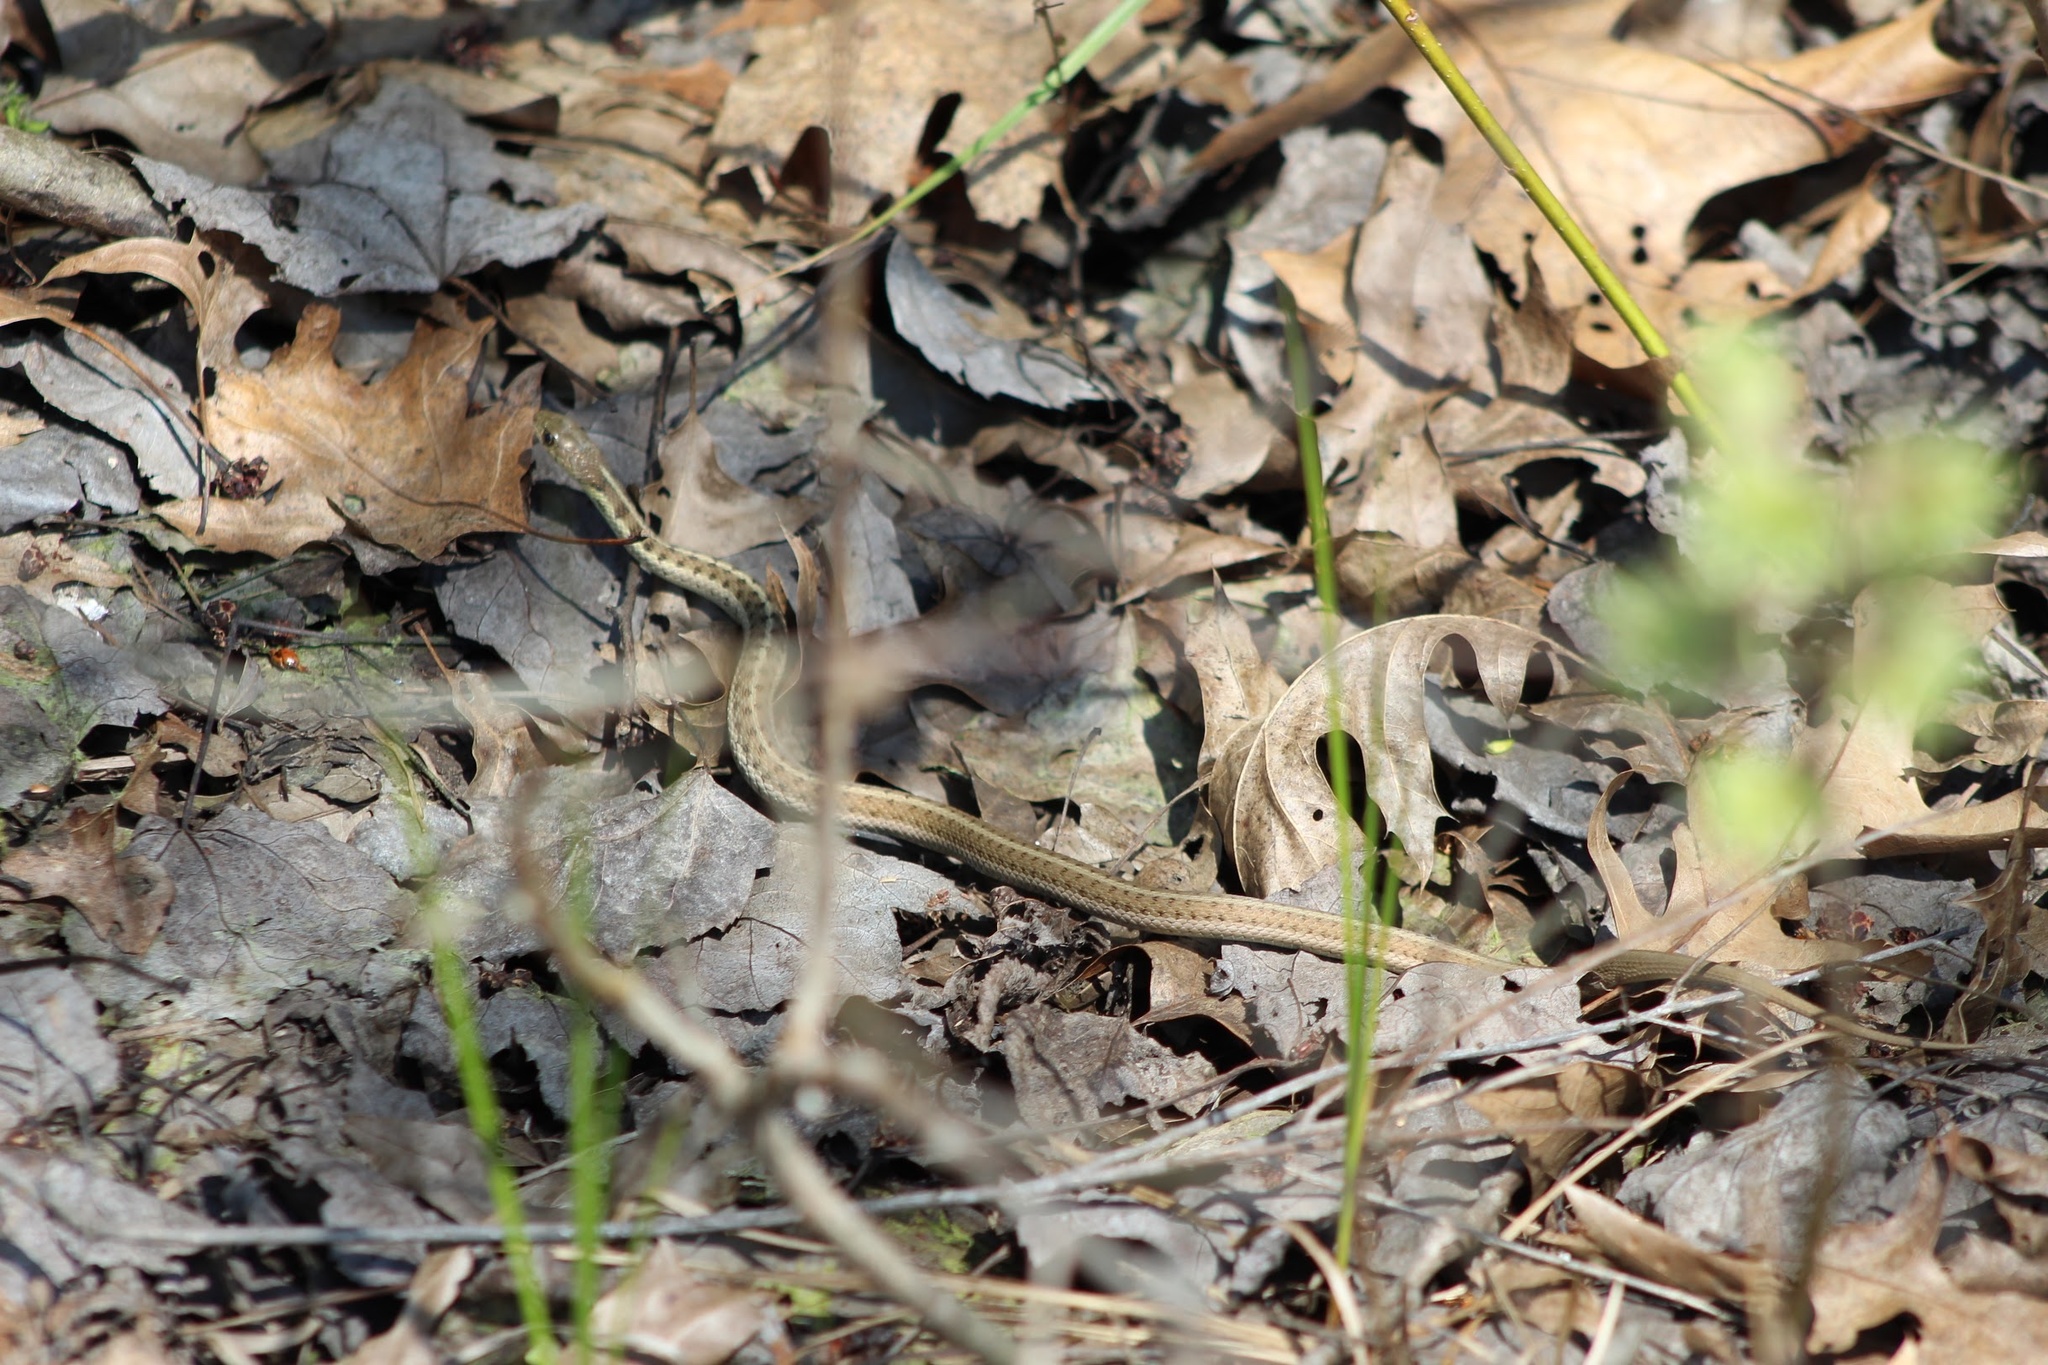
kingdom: Animalia
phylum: Chordata
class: Squamata
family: Colubridae
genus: Thamnophis
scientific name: Thamnophis sirtalis
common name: Common garter snake
